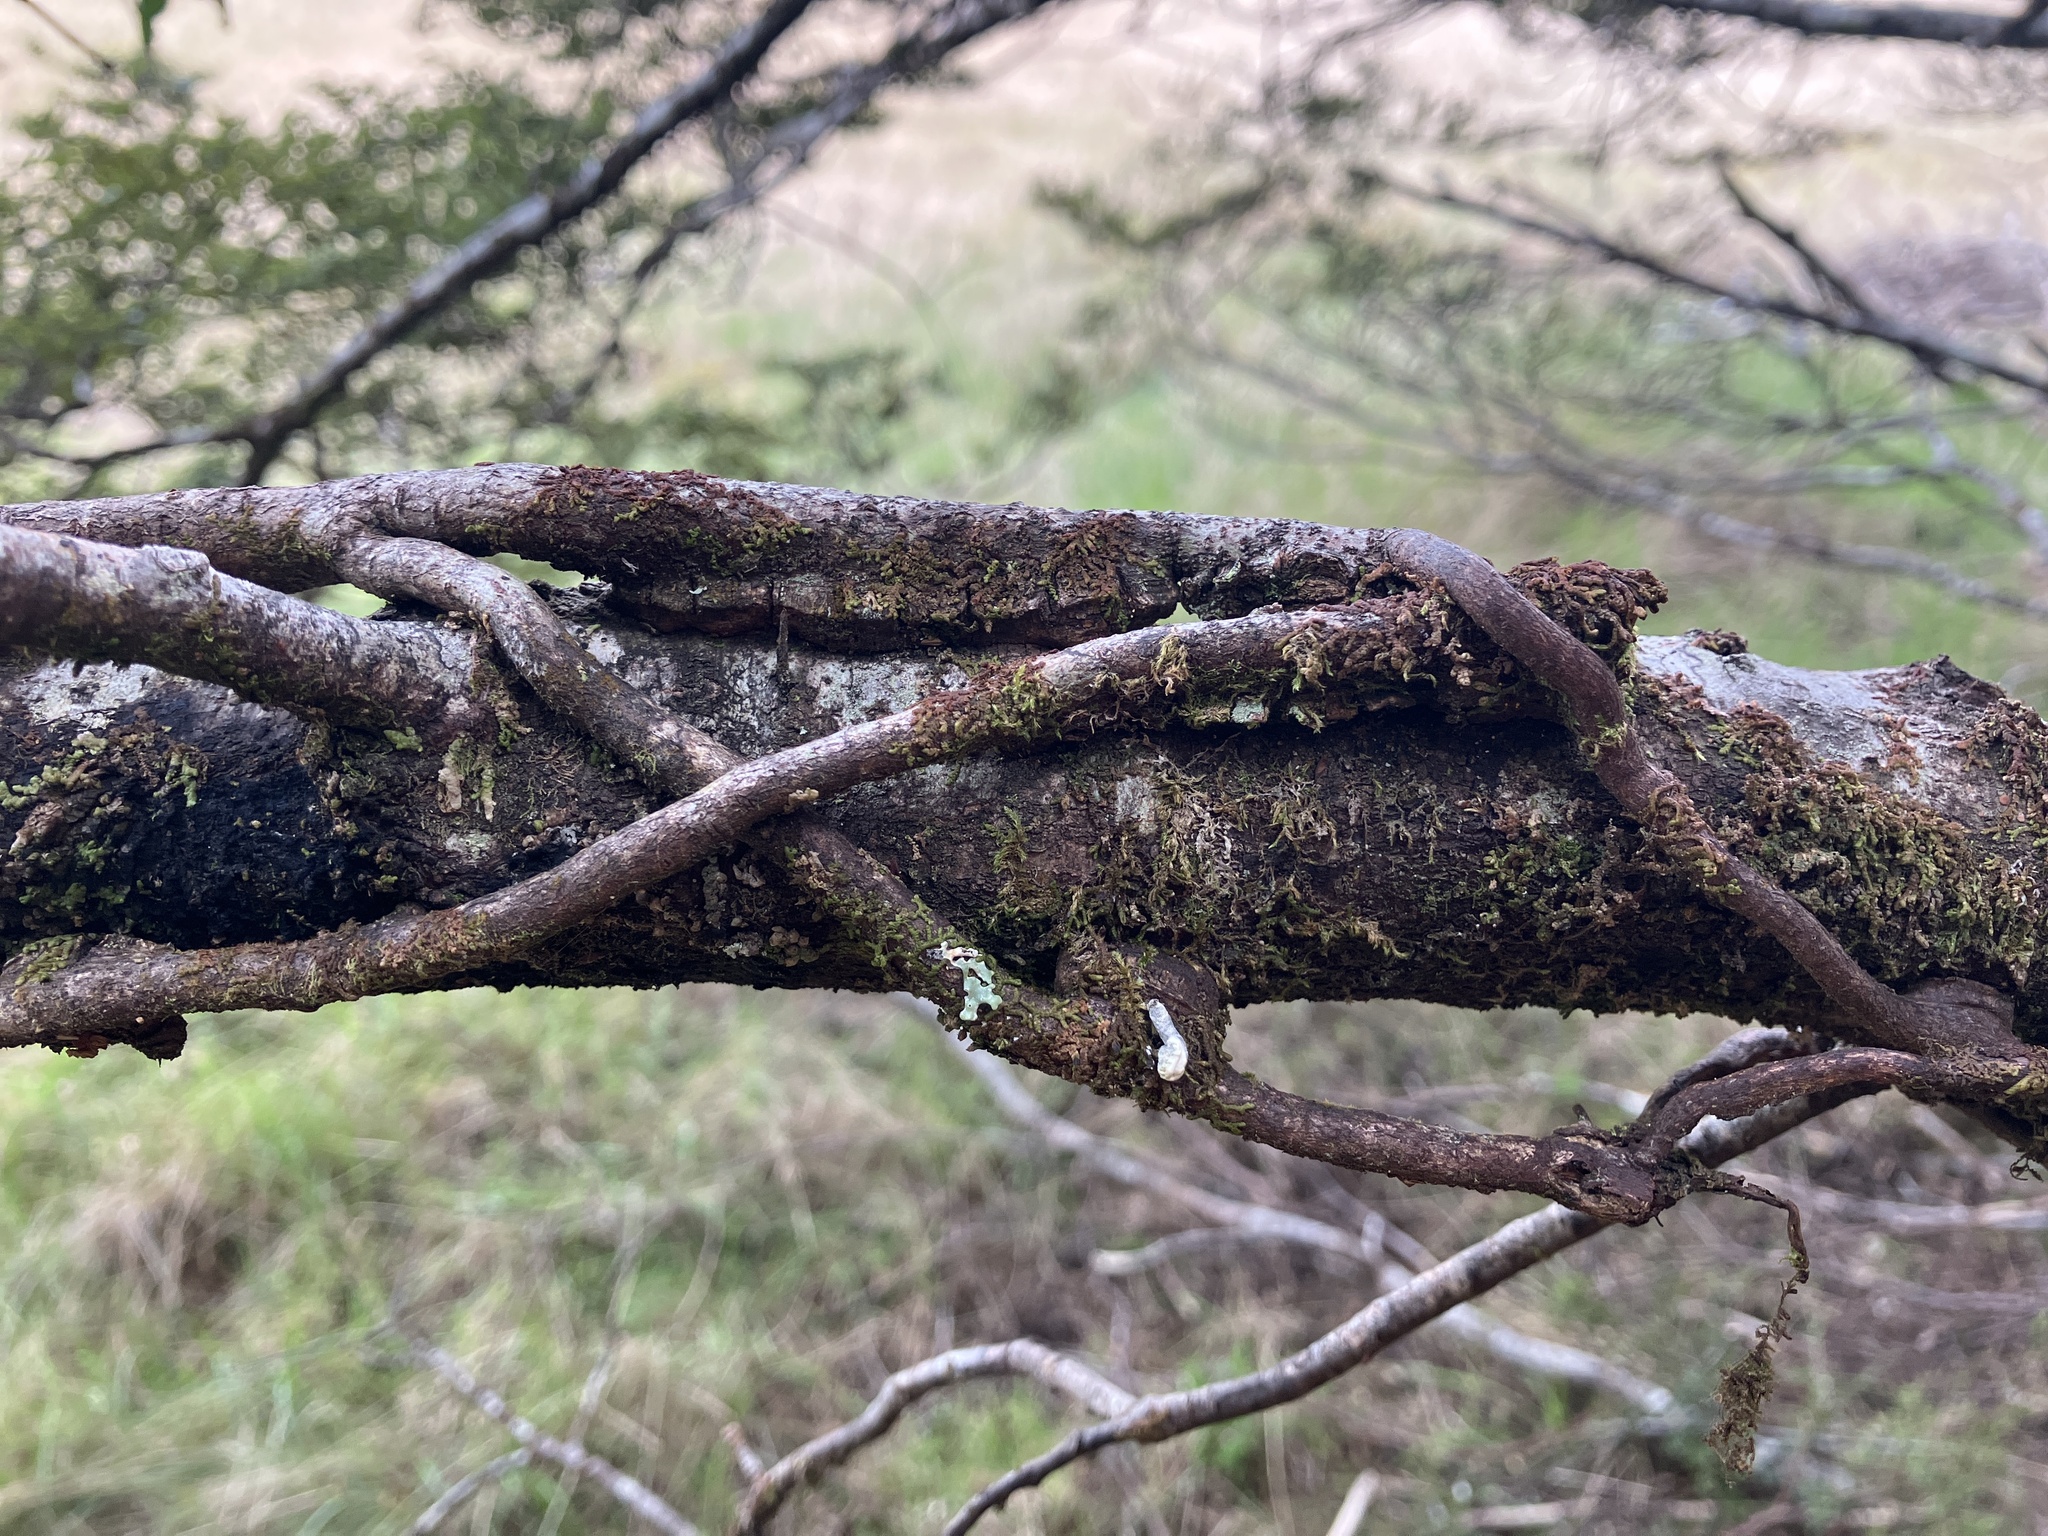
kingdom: Plantae
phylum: Tracheophyta
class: Magnoliopsida
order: Santalales
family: Loranthaceae
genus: Alepis
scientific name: Alepis flavida
